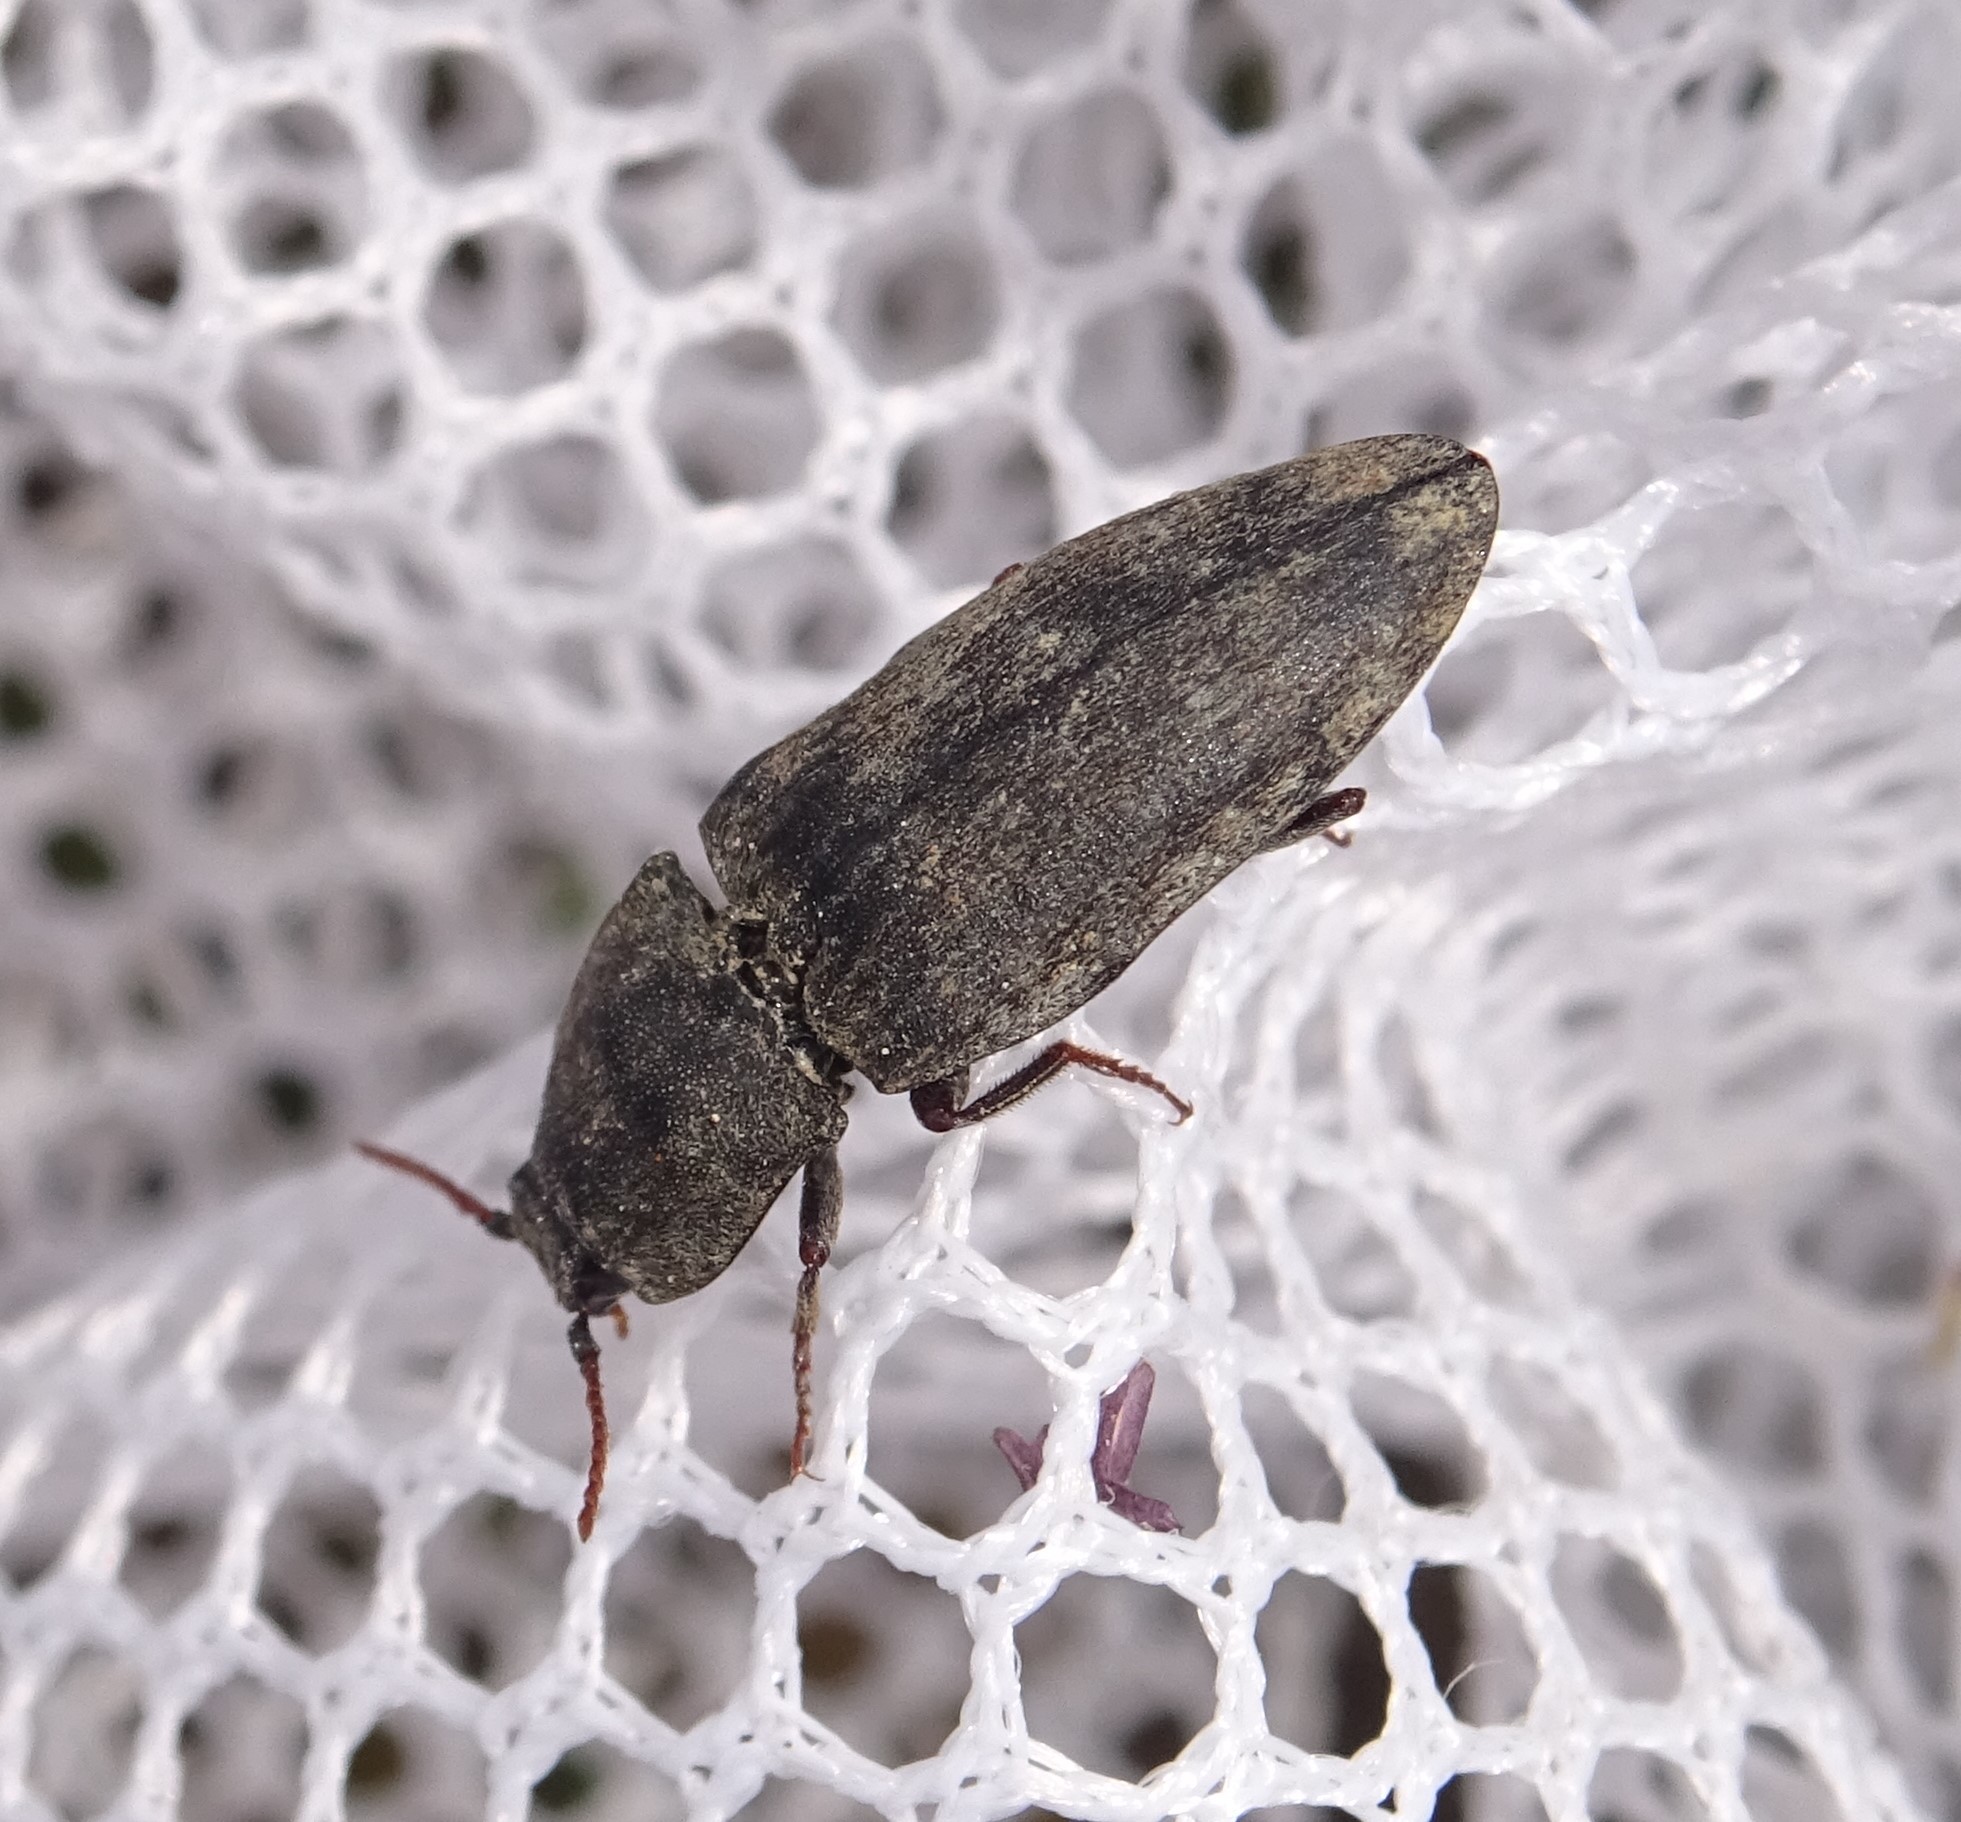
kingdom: Animalia
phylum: Arthropoda
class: Insecta
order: Coleoptera
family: Elateridae
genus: Agrypnus
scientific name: Agrypnus murinus
